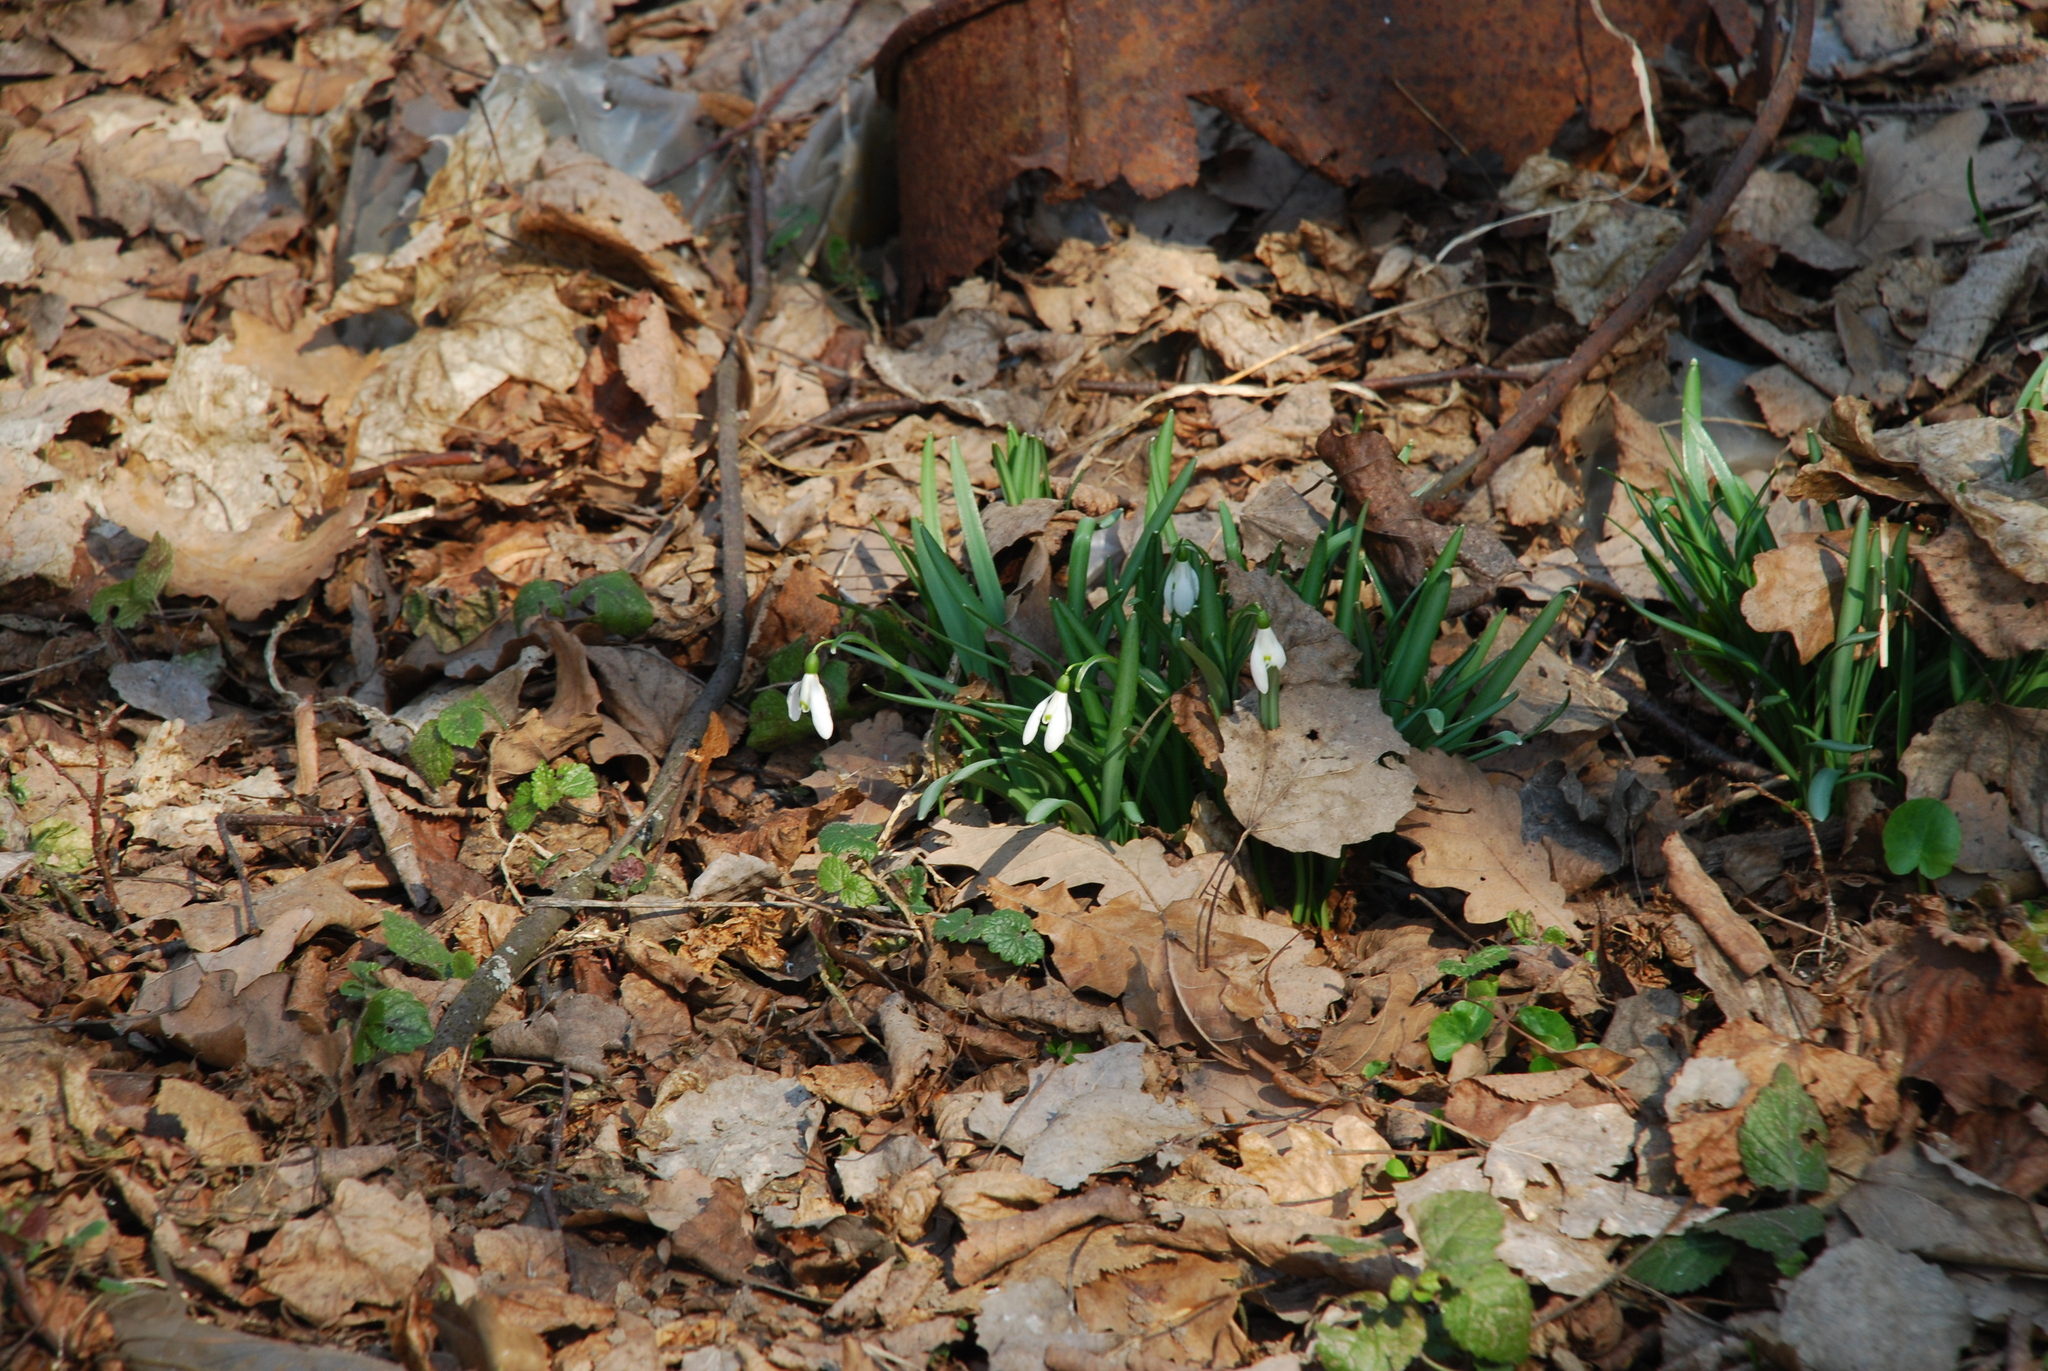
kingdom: Plantae
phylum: Tracheophyta
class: Liliopsida
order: Asparagales
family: Amaryllidaceae
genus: Galanthus
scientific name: Galanthus nivalis
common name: Snowdrop
